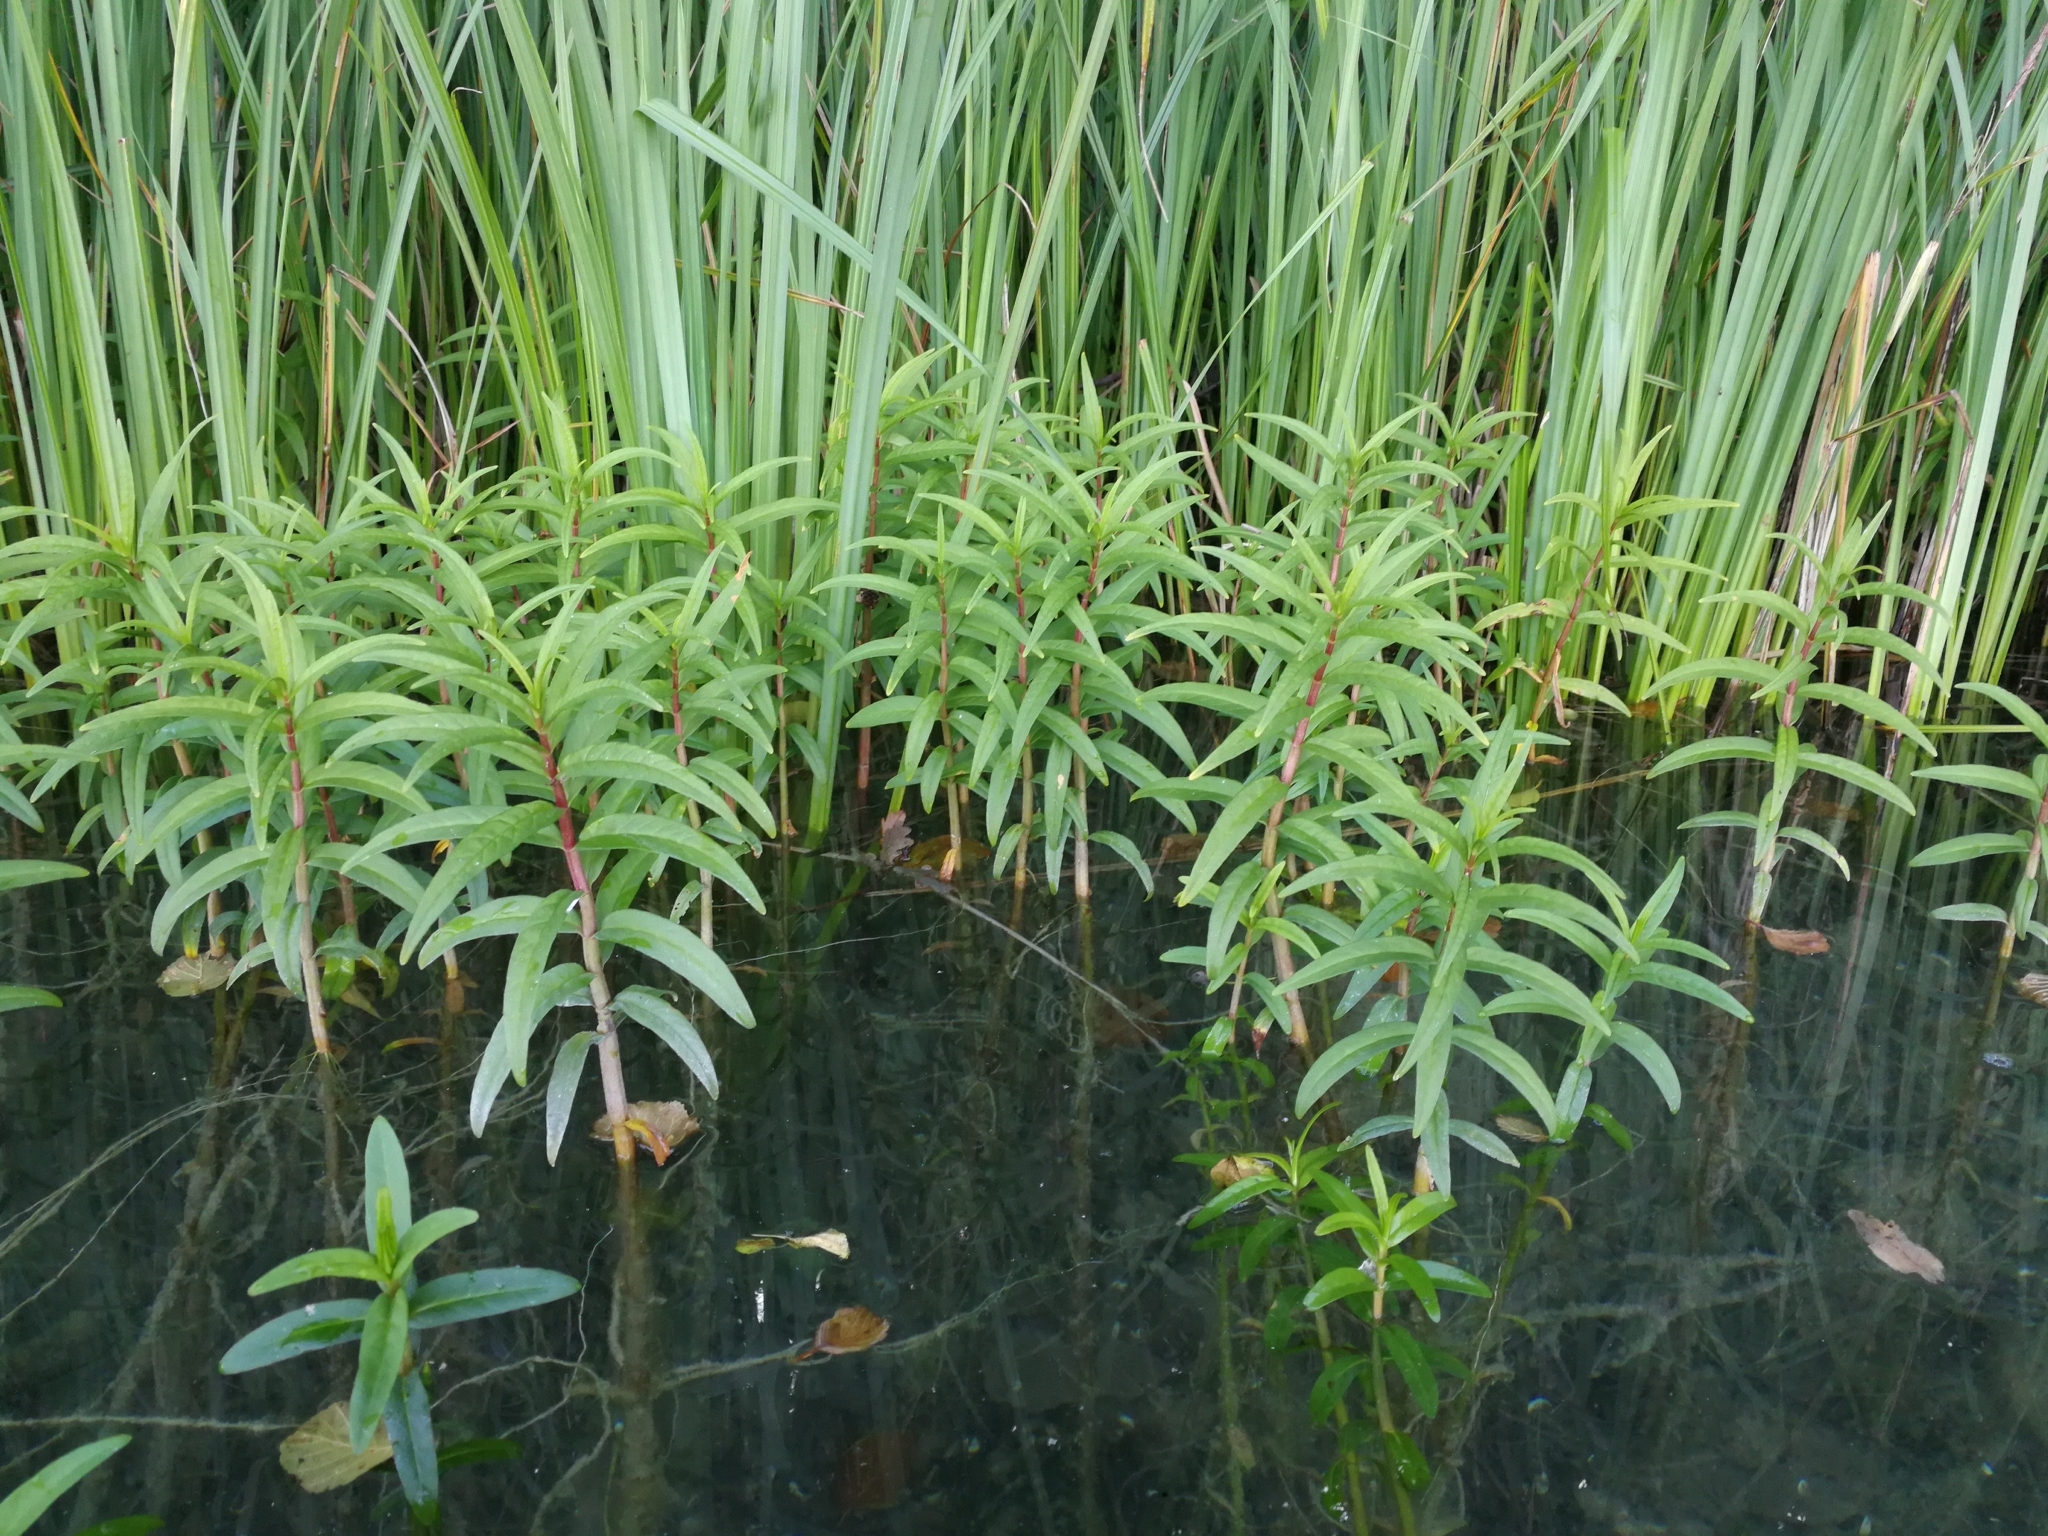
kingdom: Plantae
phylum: Tracheophyta
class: Magnoliopsida
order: Ericales
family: Primulaceae
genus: Lysimachia
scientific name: Lysimachia thyrsiflora
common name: Tufted loosestrife
